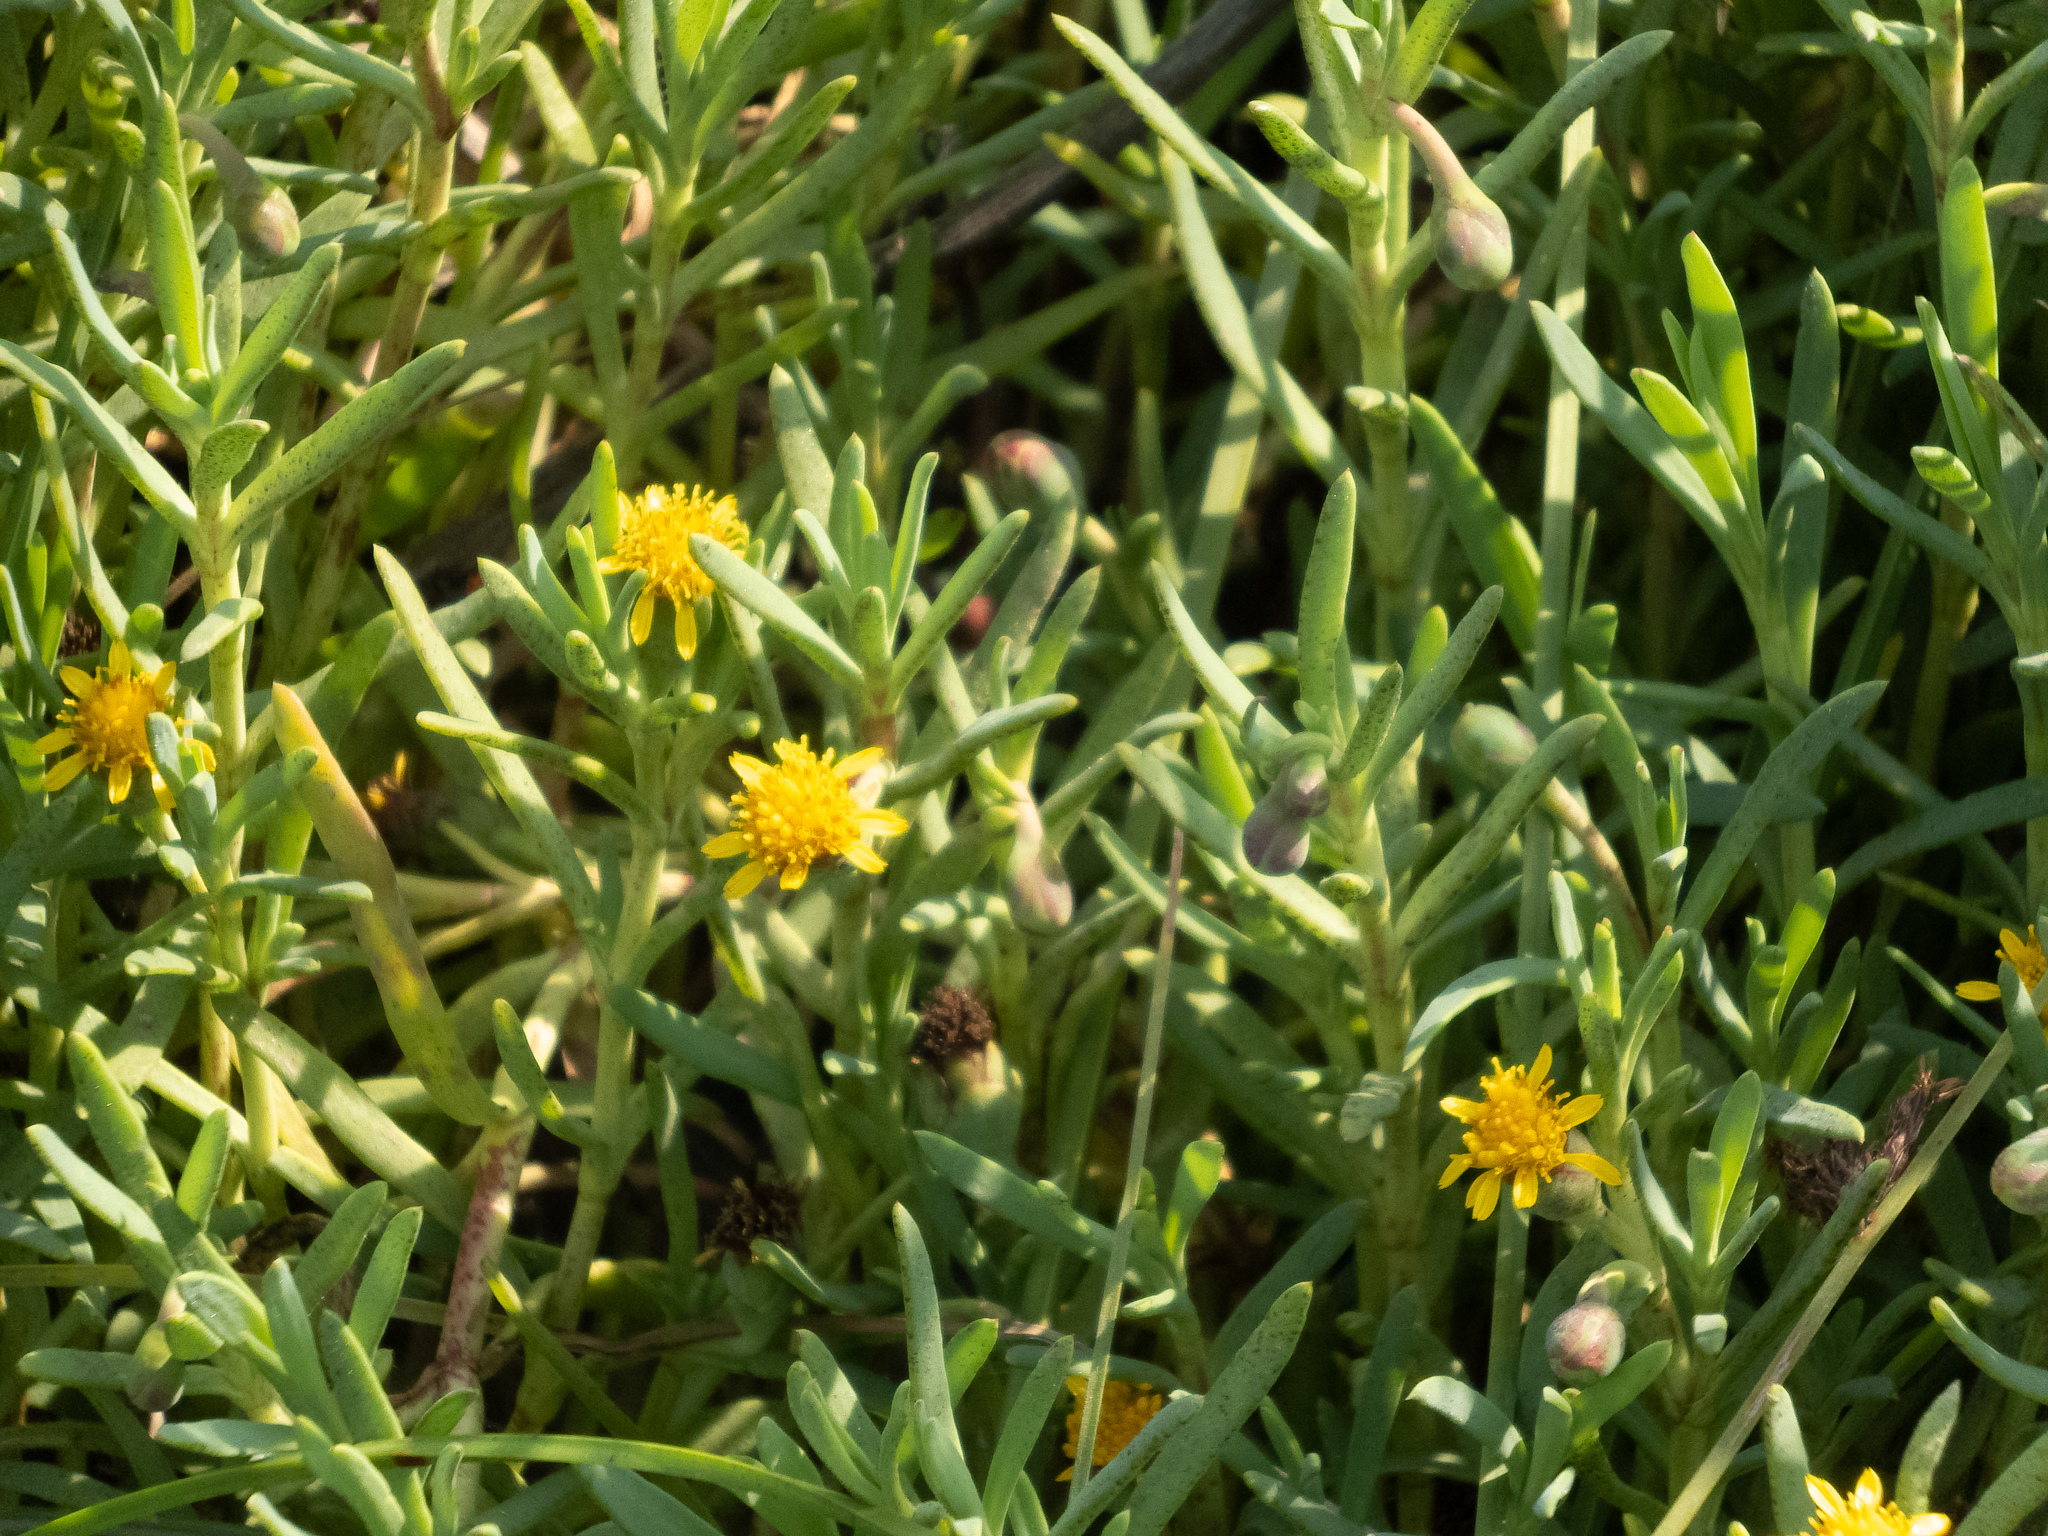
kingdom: Plantae
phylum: Tracheophyta
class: Magnoliopsida
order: Asterales
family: Asteraceae
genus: Jaumea
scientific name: Jaumea carnosa
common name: Fleshy jaumea
